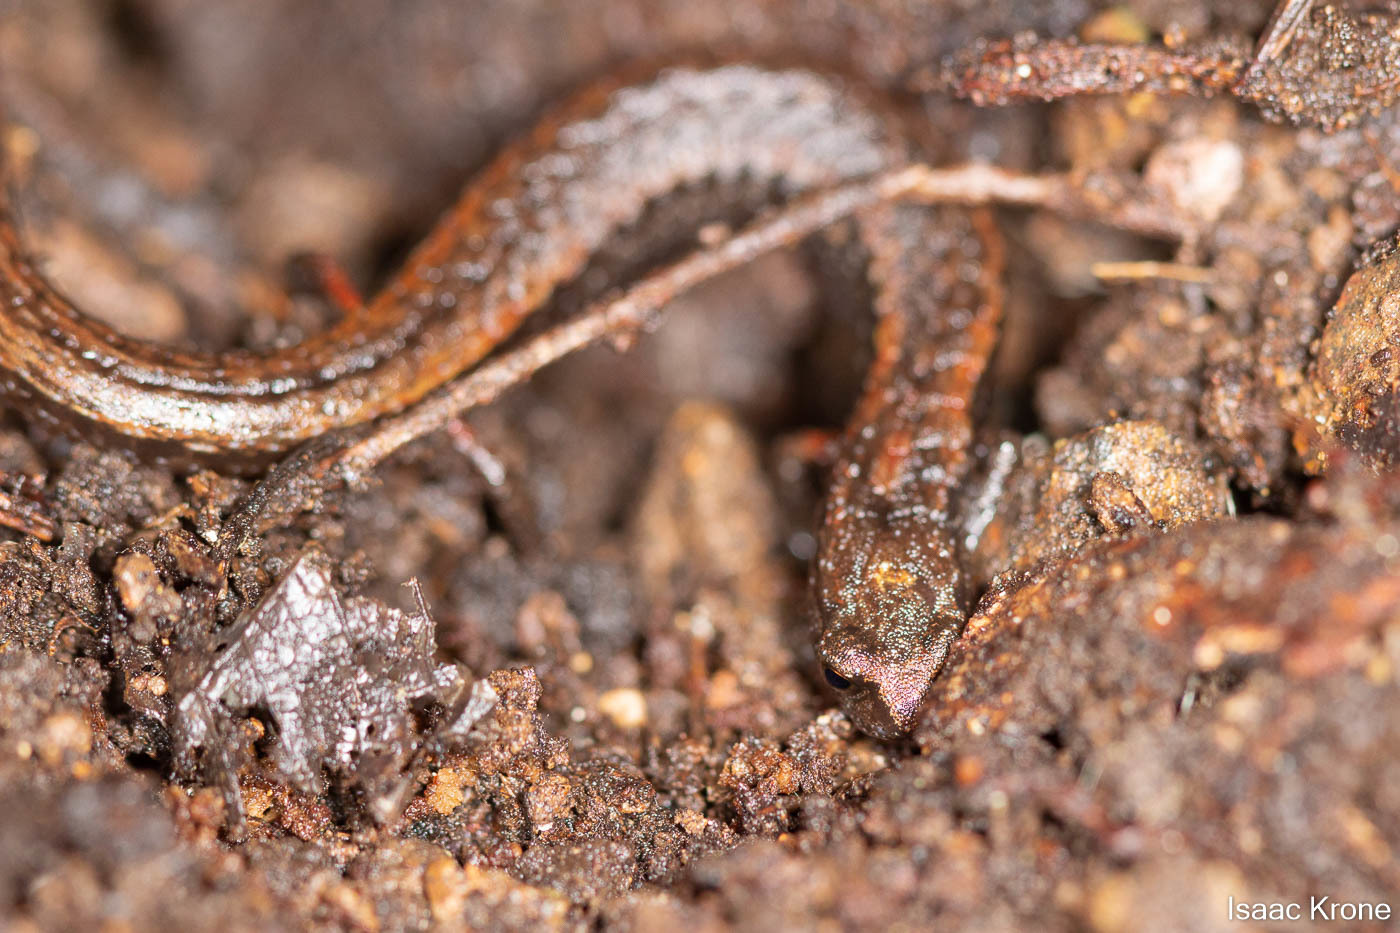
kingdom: Animalia
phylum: Chordata
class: Amphibia
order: Caudata
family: Plethodontidae
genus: Batrachoseps
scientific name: Batrachoseps attenuatus
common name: California slender salamander
